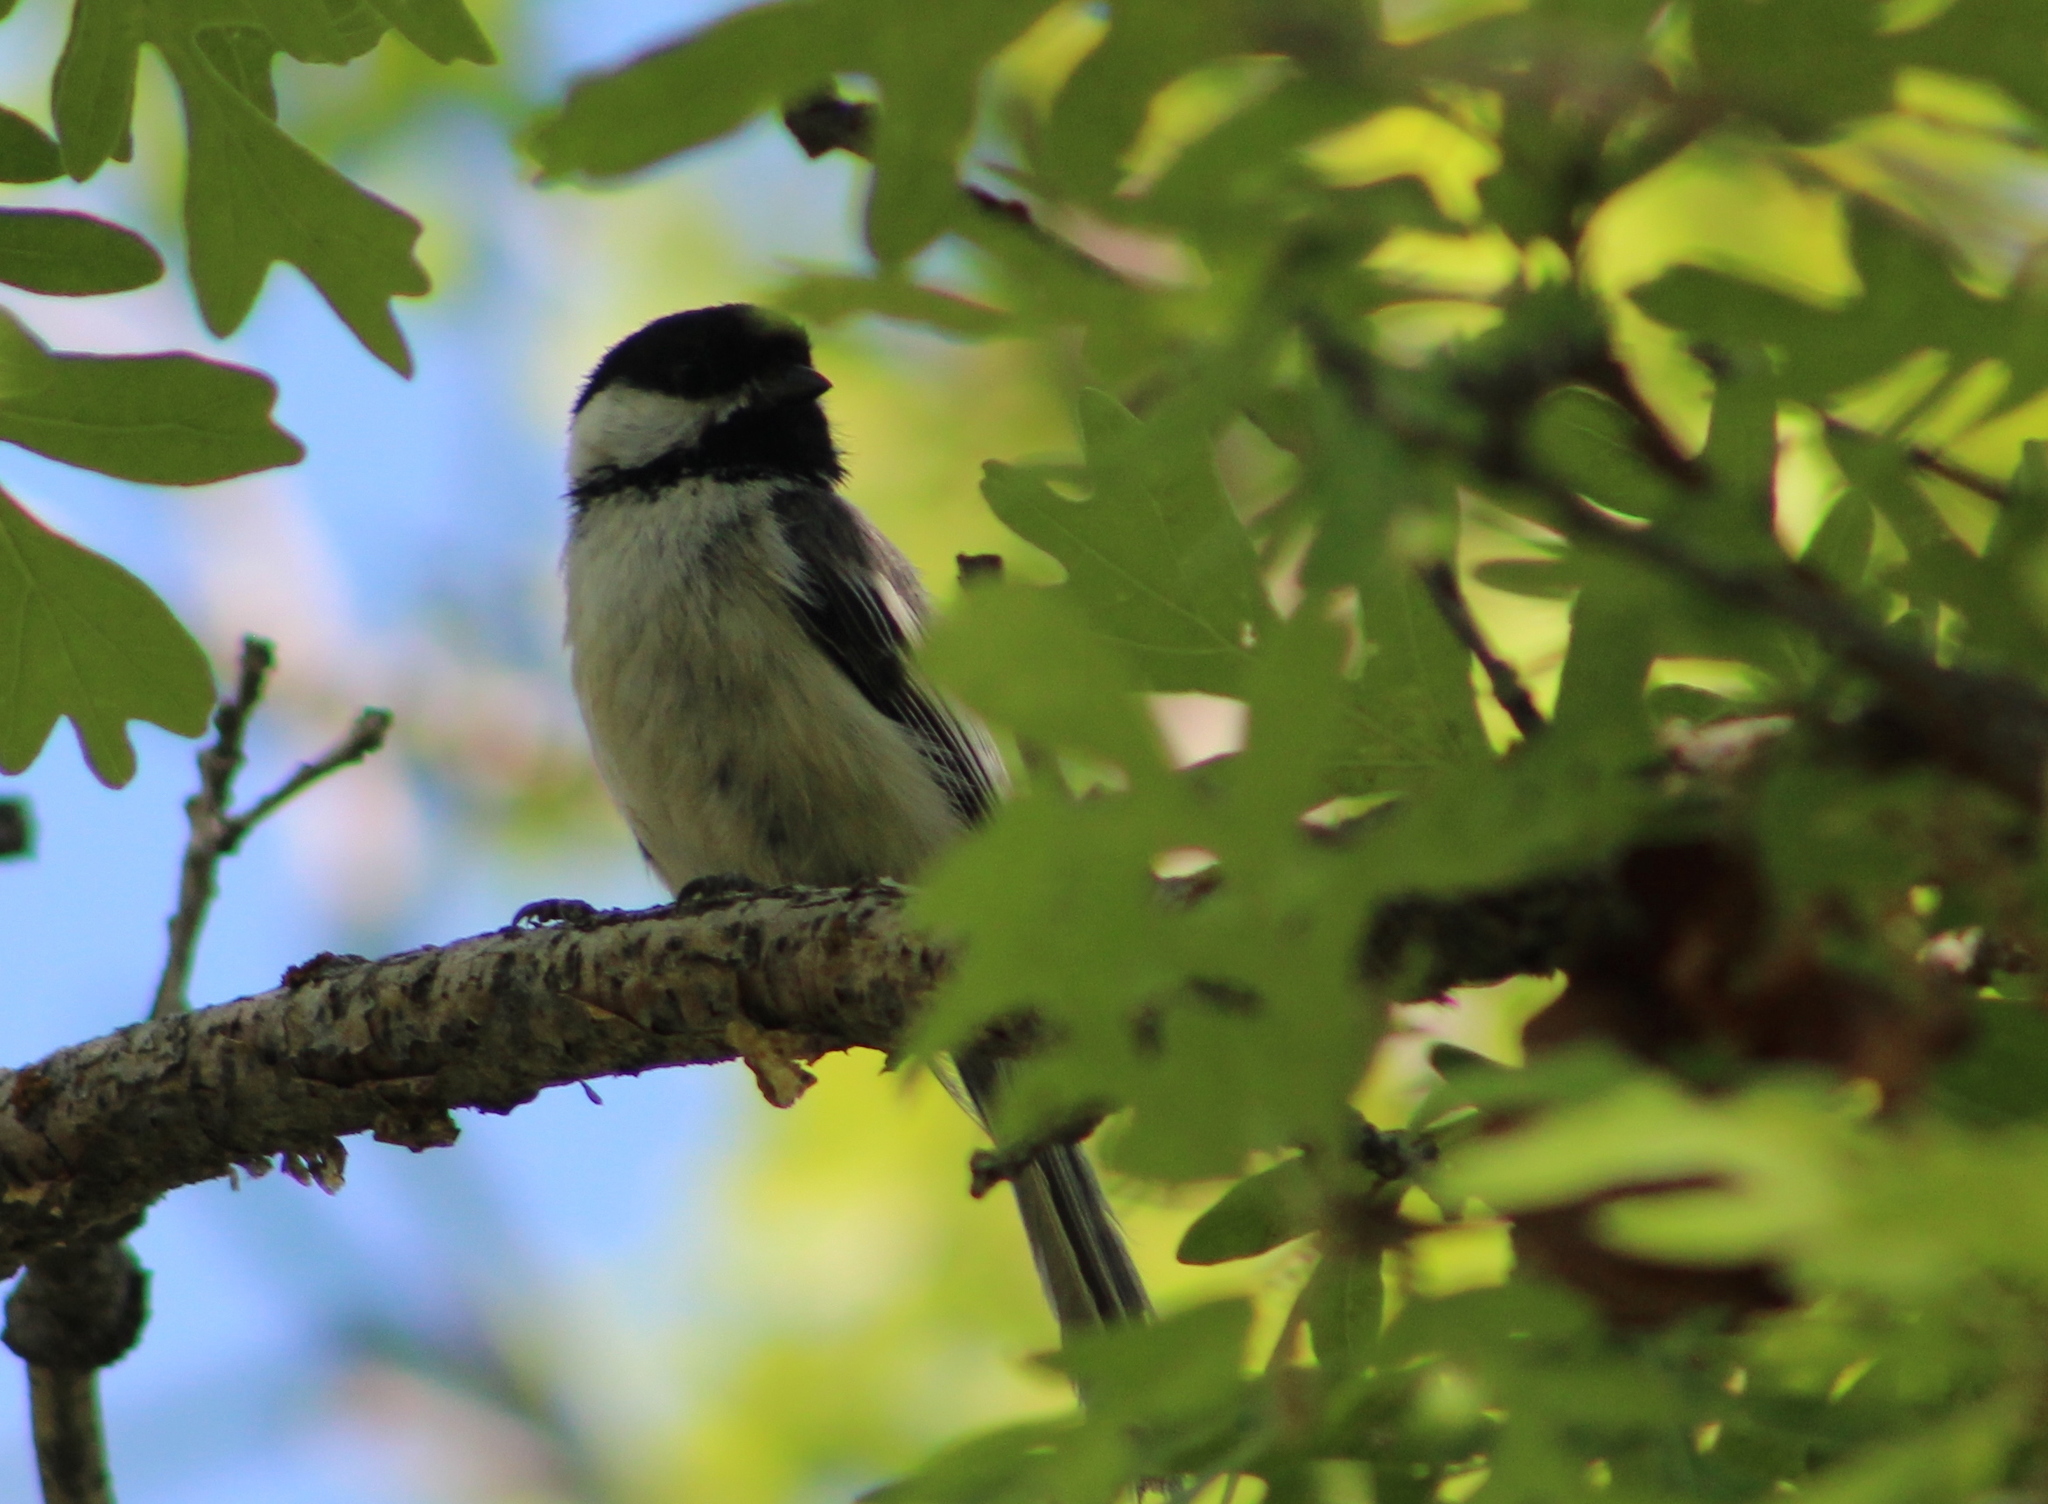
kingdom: Animalia
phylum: Chordata
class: Aves
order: Passeriformes
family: Paridae
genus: Poecile
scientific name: Poecile atricapillus
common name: Black-capped chickadee
